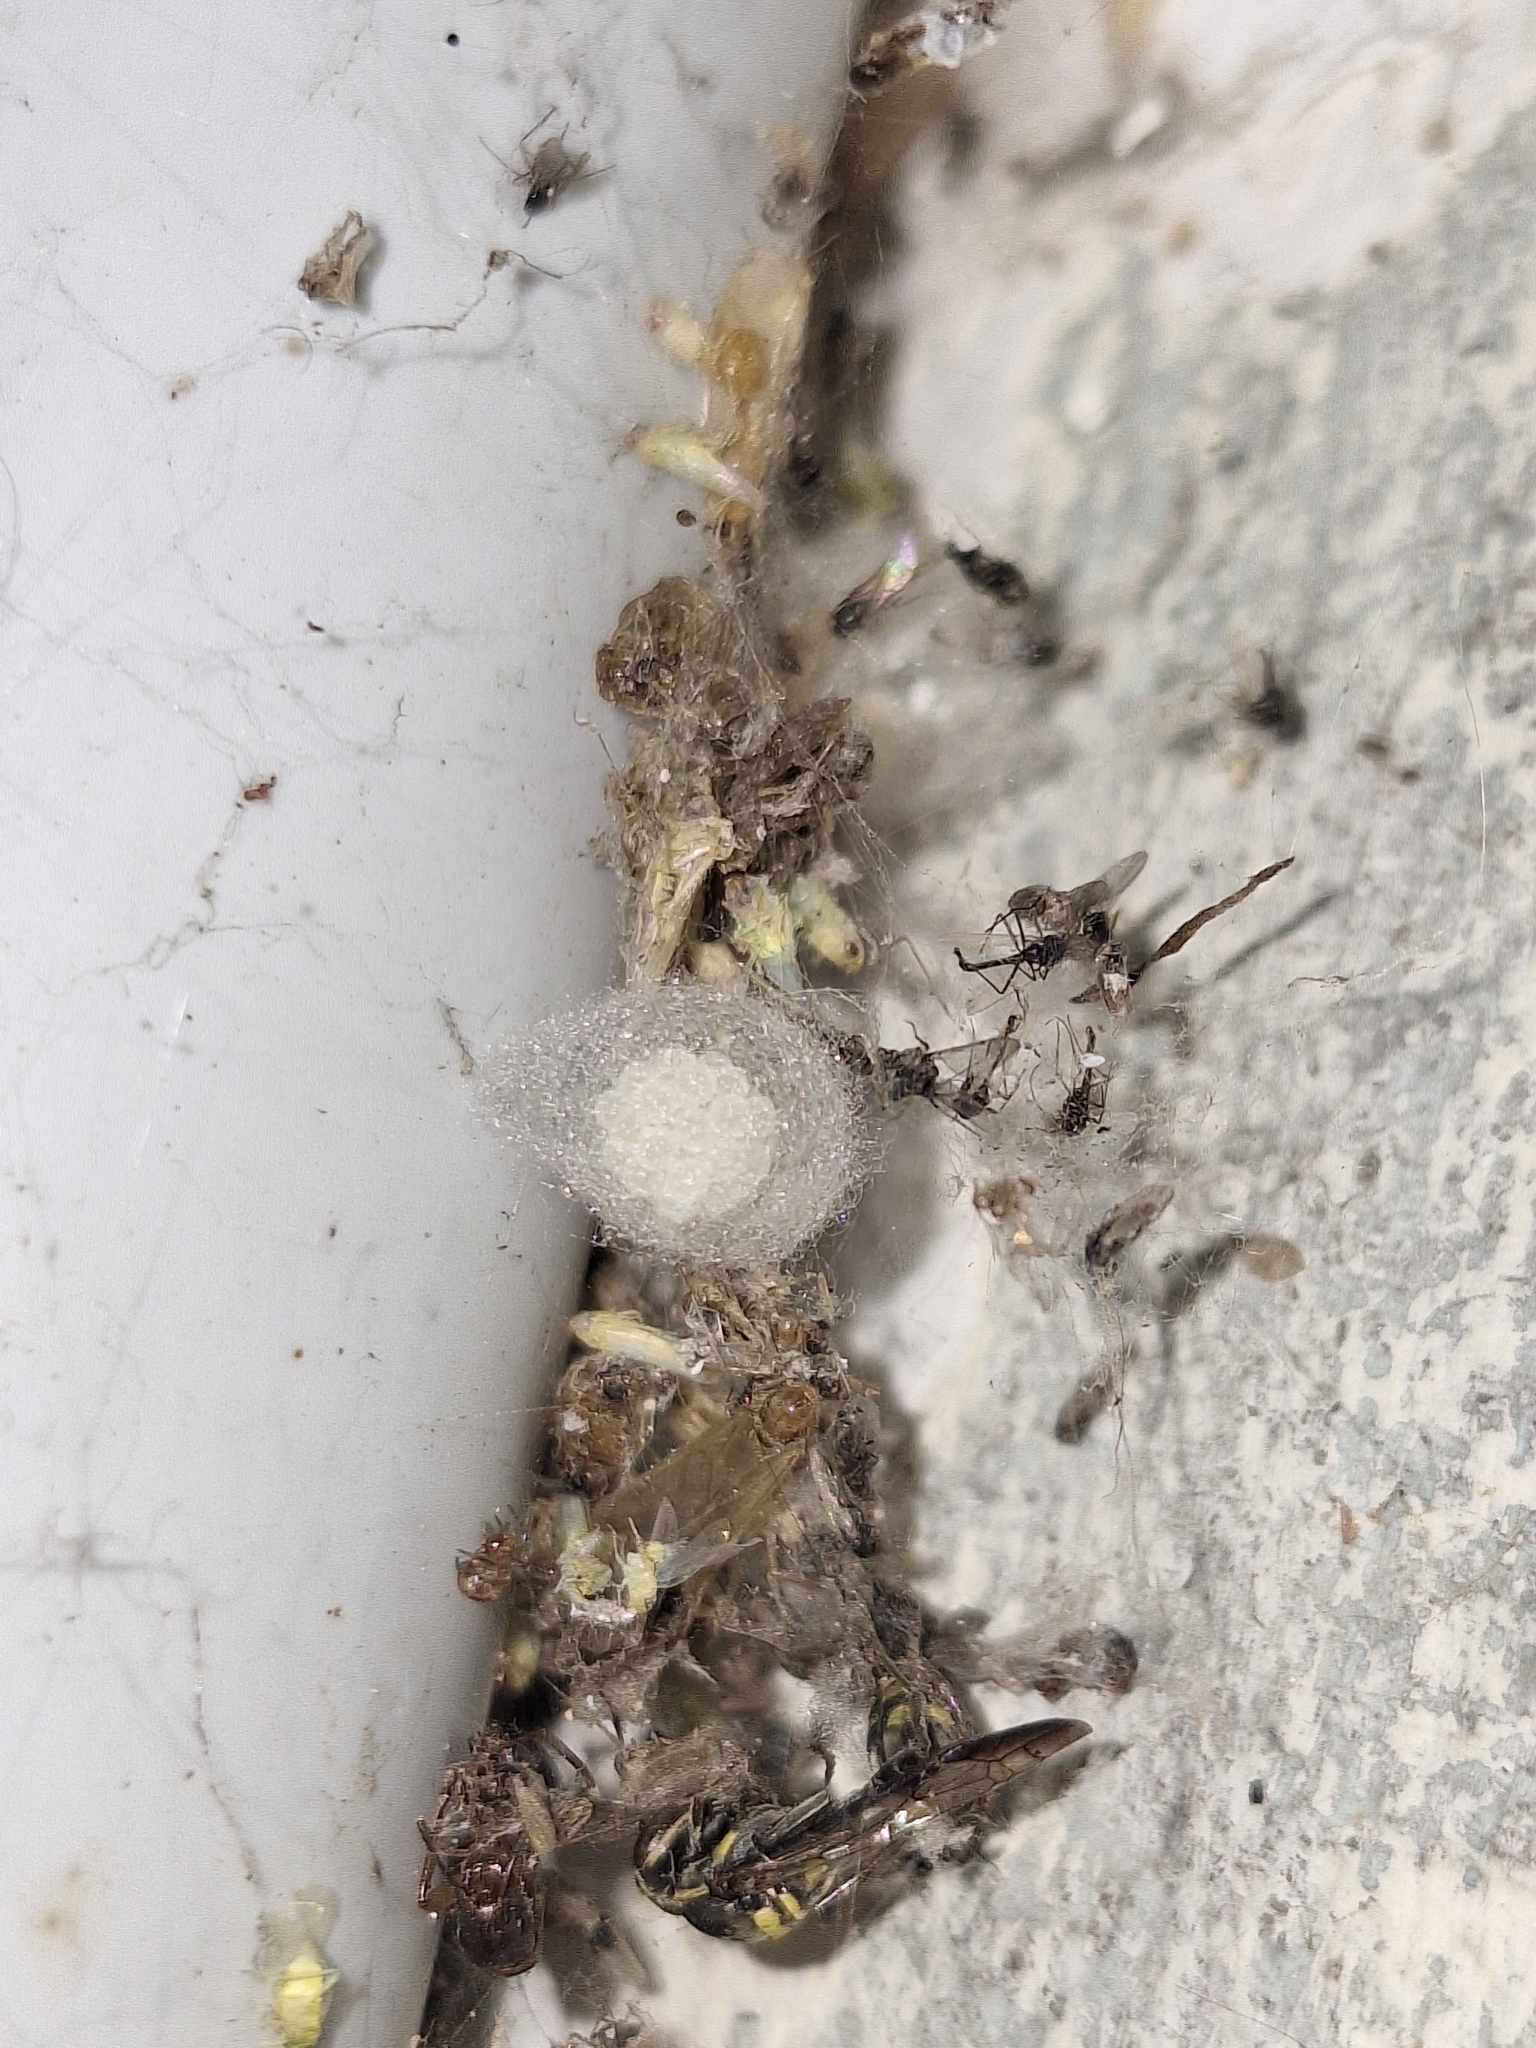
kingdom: Animalia
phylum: Arthropoda
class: Arachnida
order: Araneae
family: Theridiidae
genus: Steatoda
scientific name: Steatoda triangulosa
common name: Triangulate bud spider
